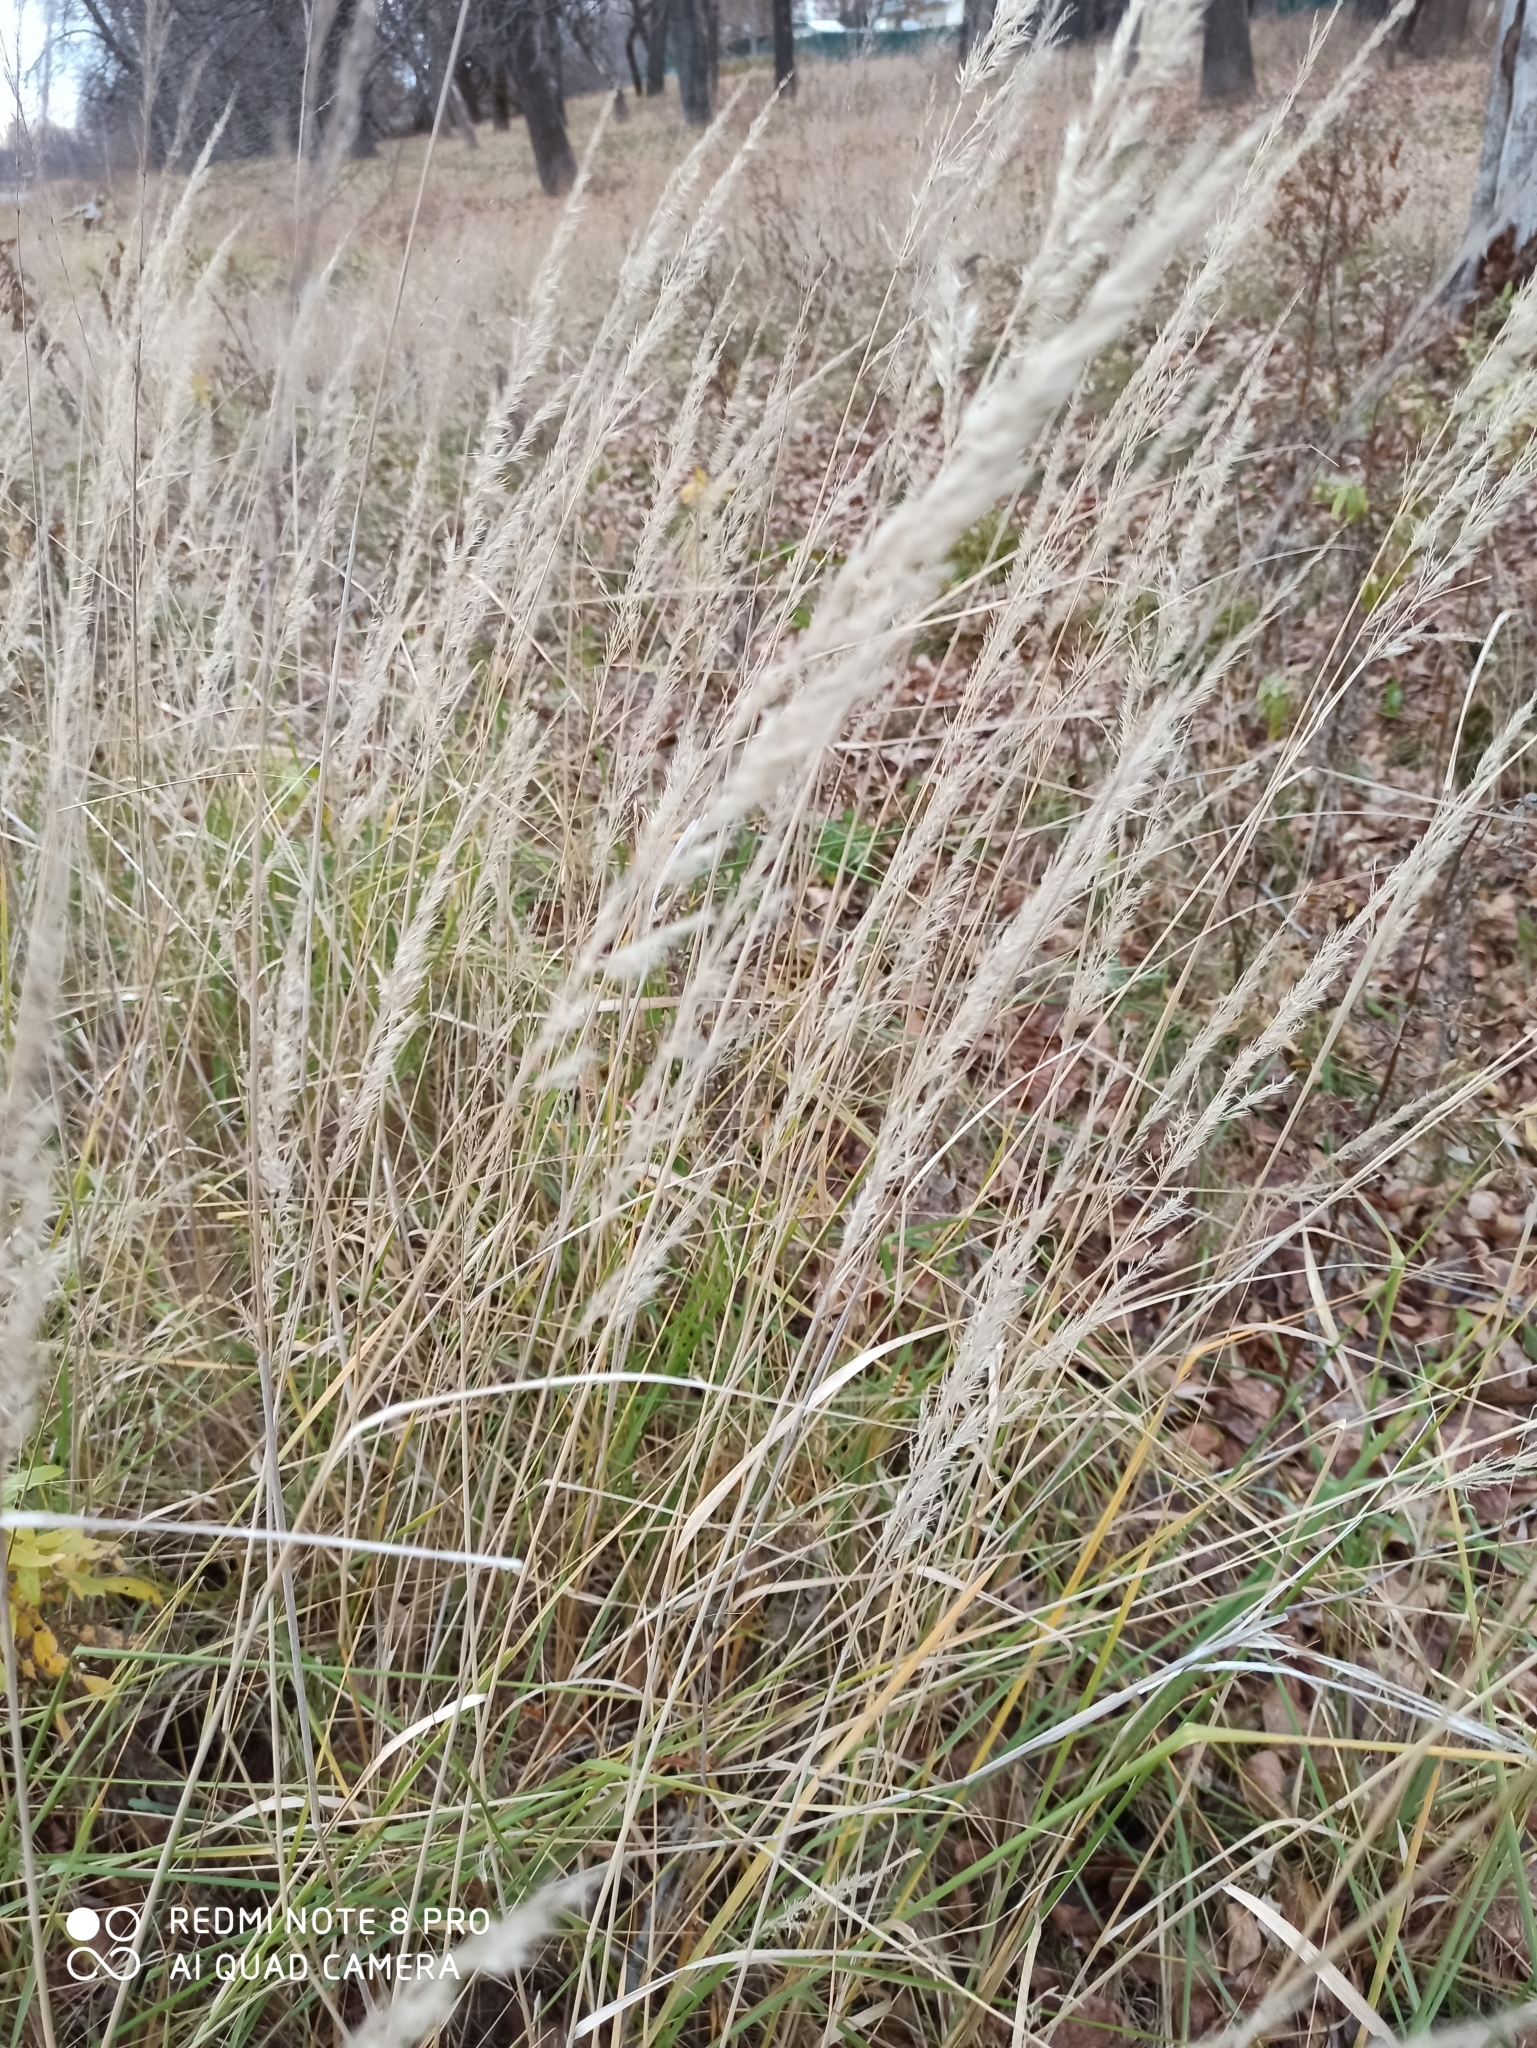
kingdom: Plantae
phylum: Tracheophyta
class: Liliopsida
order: Poales
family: Poaceae
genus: Calamagrostis
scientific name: Calamagrostis epigejos
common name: Wood small-reed
